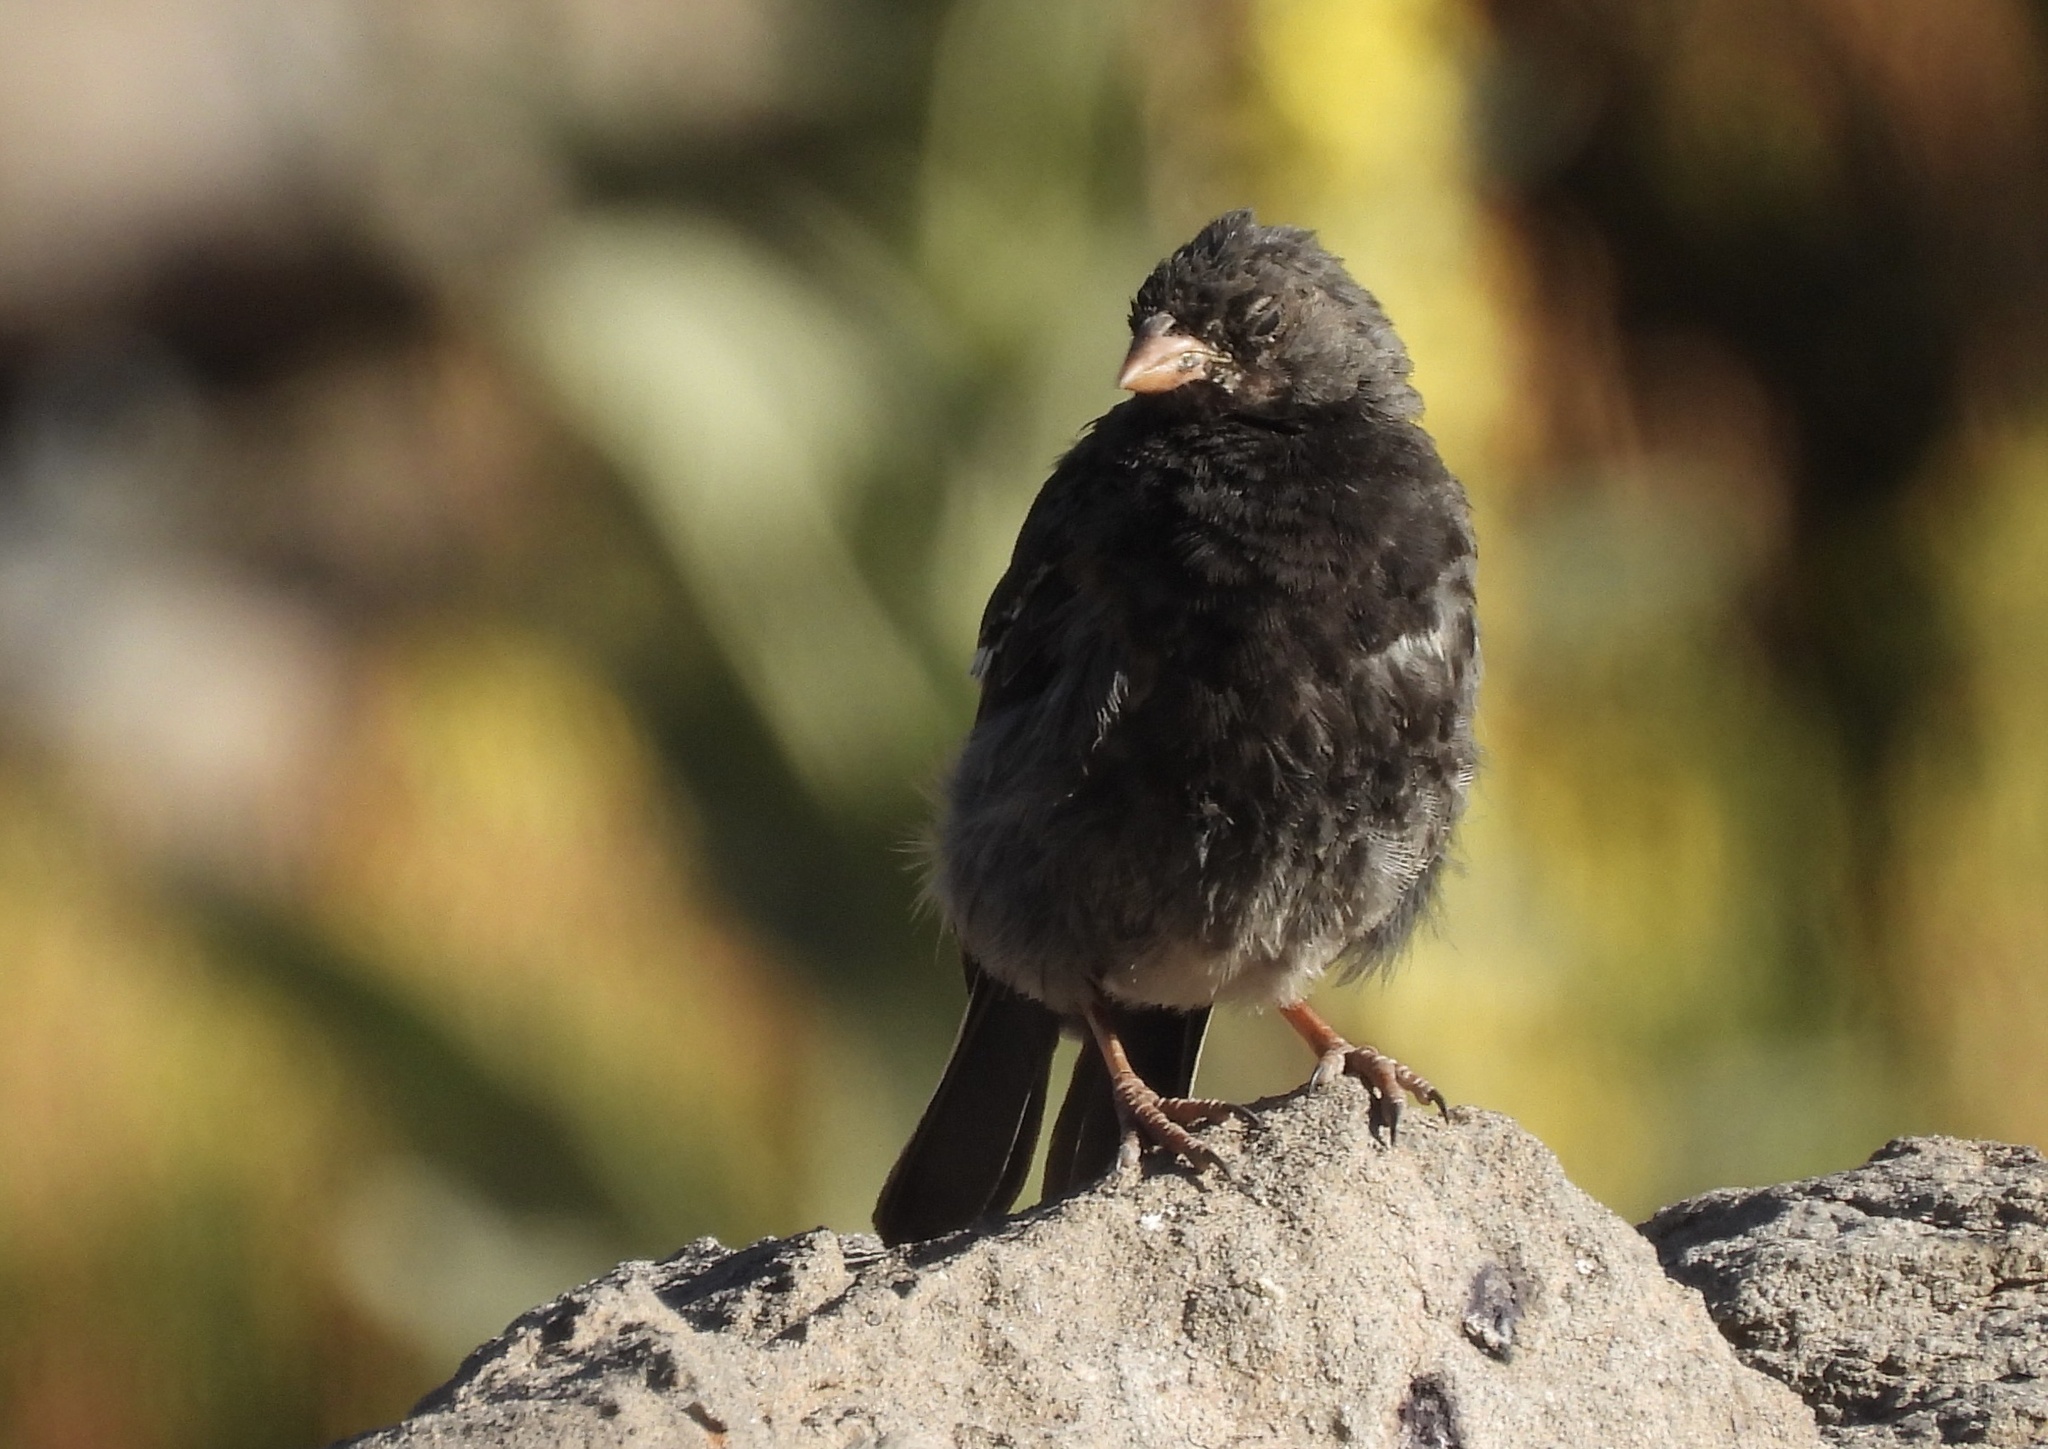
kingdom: Animalia
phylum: Chordata
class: Aves
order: Passeriformes
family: Thraupidae
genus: Rhopospina
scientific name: Rhopospina fruticeti
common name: Mourning sierra finch
